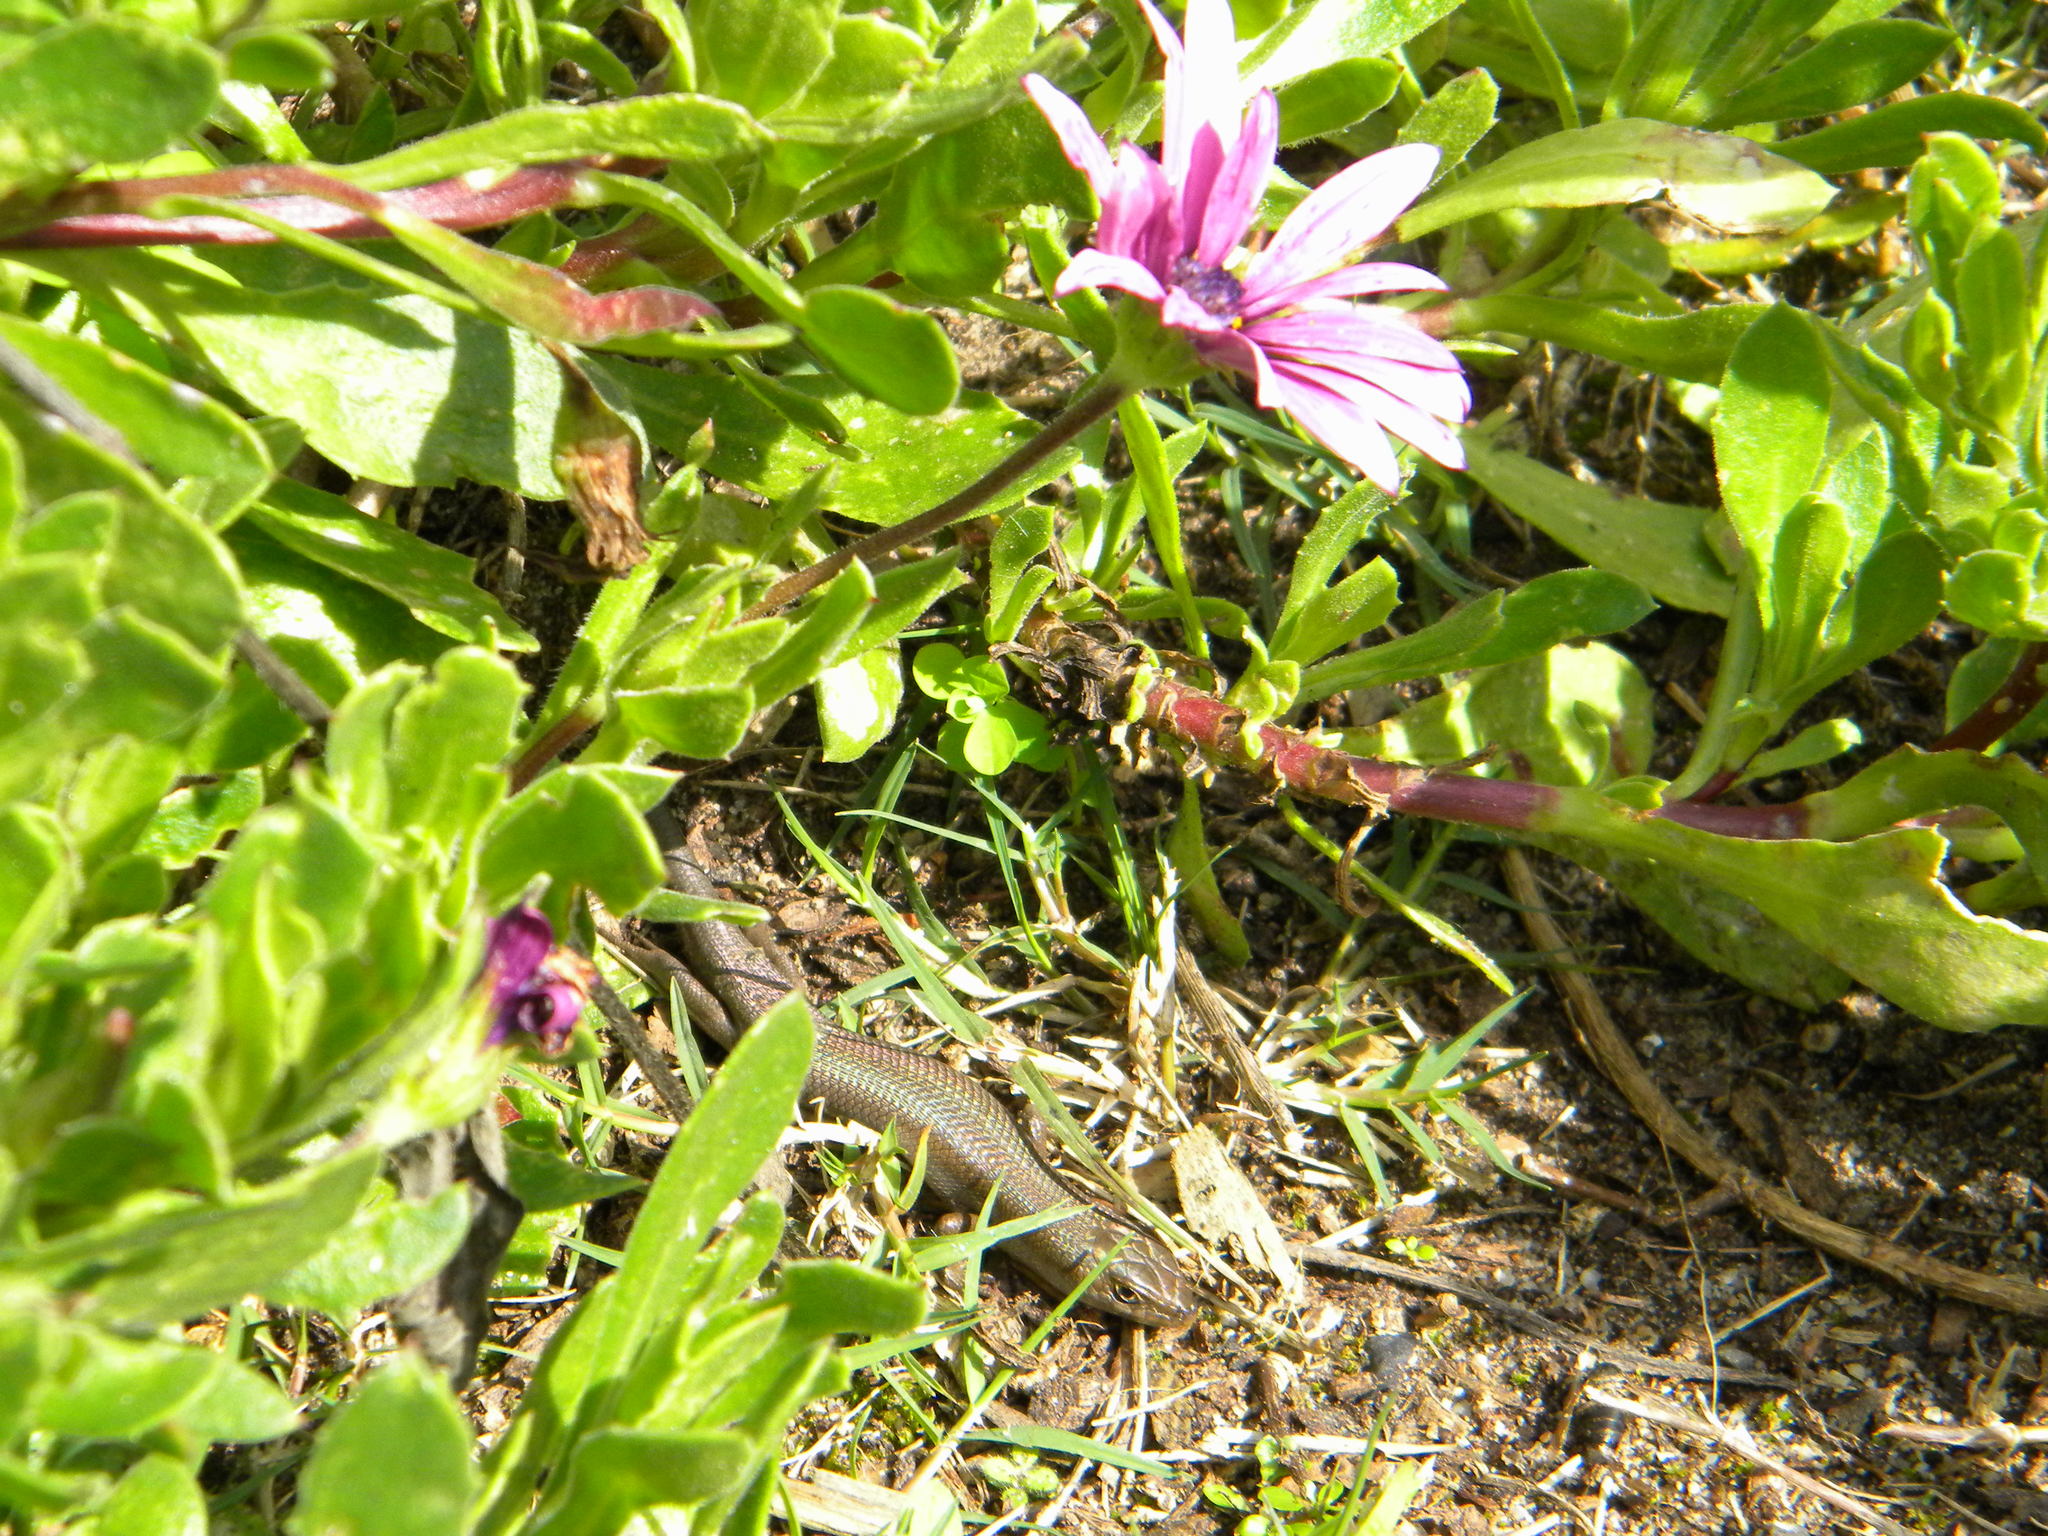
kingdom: Animalia
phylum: Chordata
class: Squamata
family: Scincidae
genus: Trachylepis
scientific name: Trachylepis capensis
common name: Cape skink
